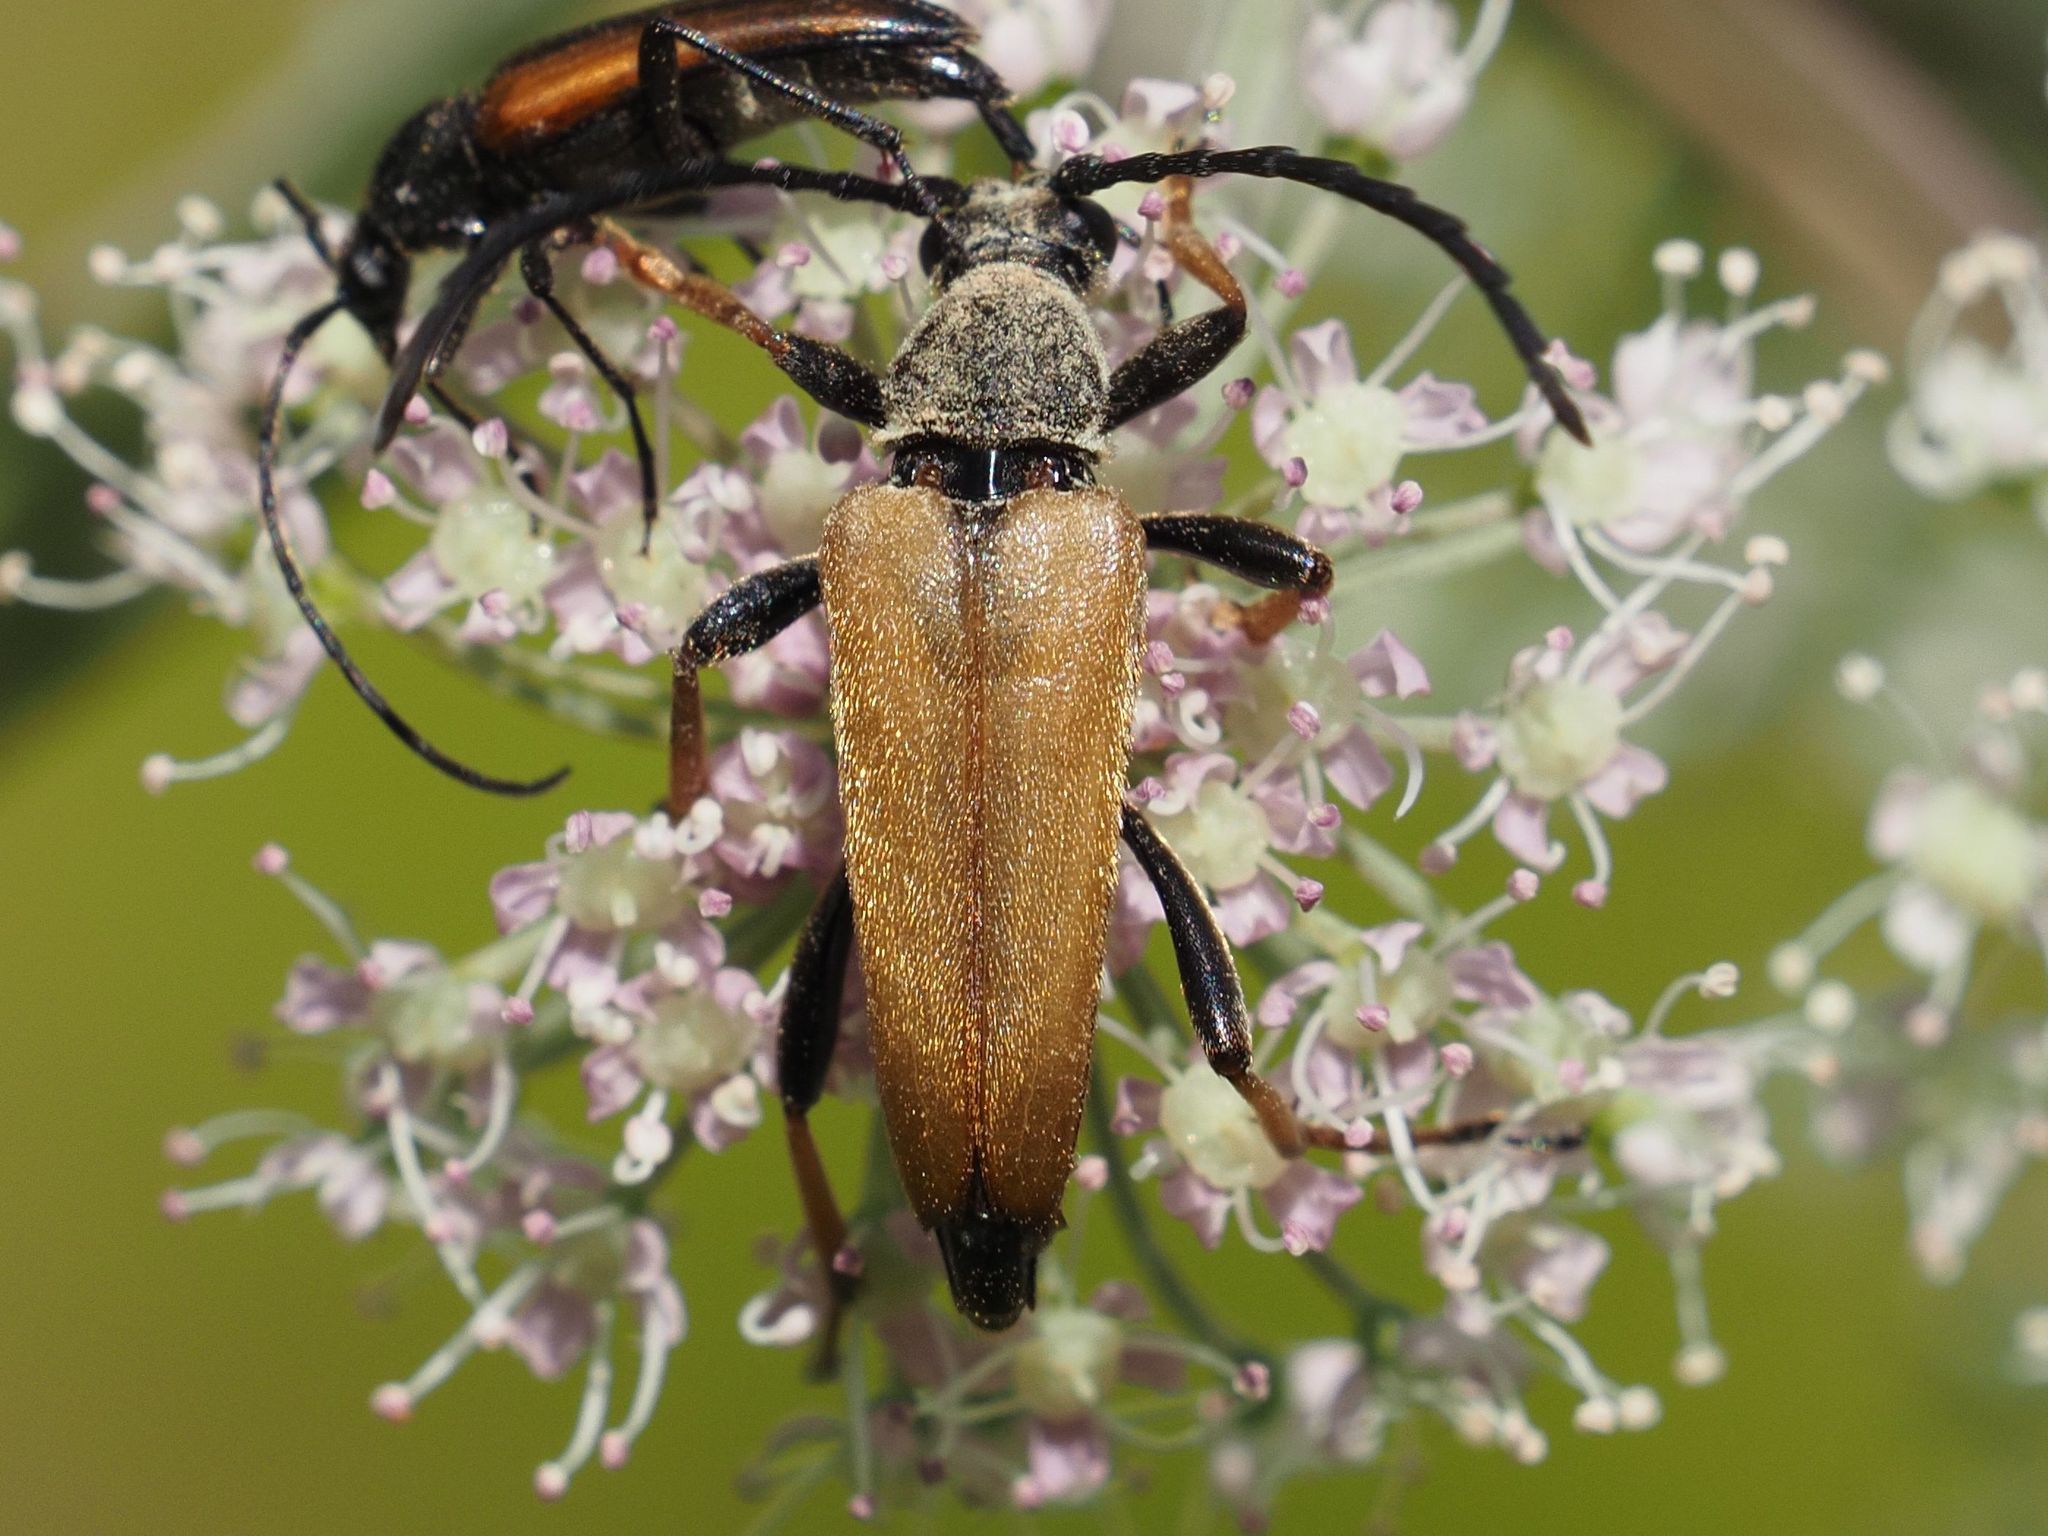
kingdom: Animalia
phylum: Arthropoda
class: Insecta
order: Coleoptera
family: Cerambycidae
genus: Stictoleptura
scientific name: Stictoleptura rubra
